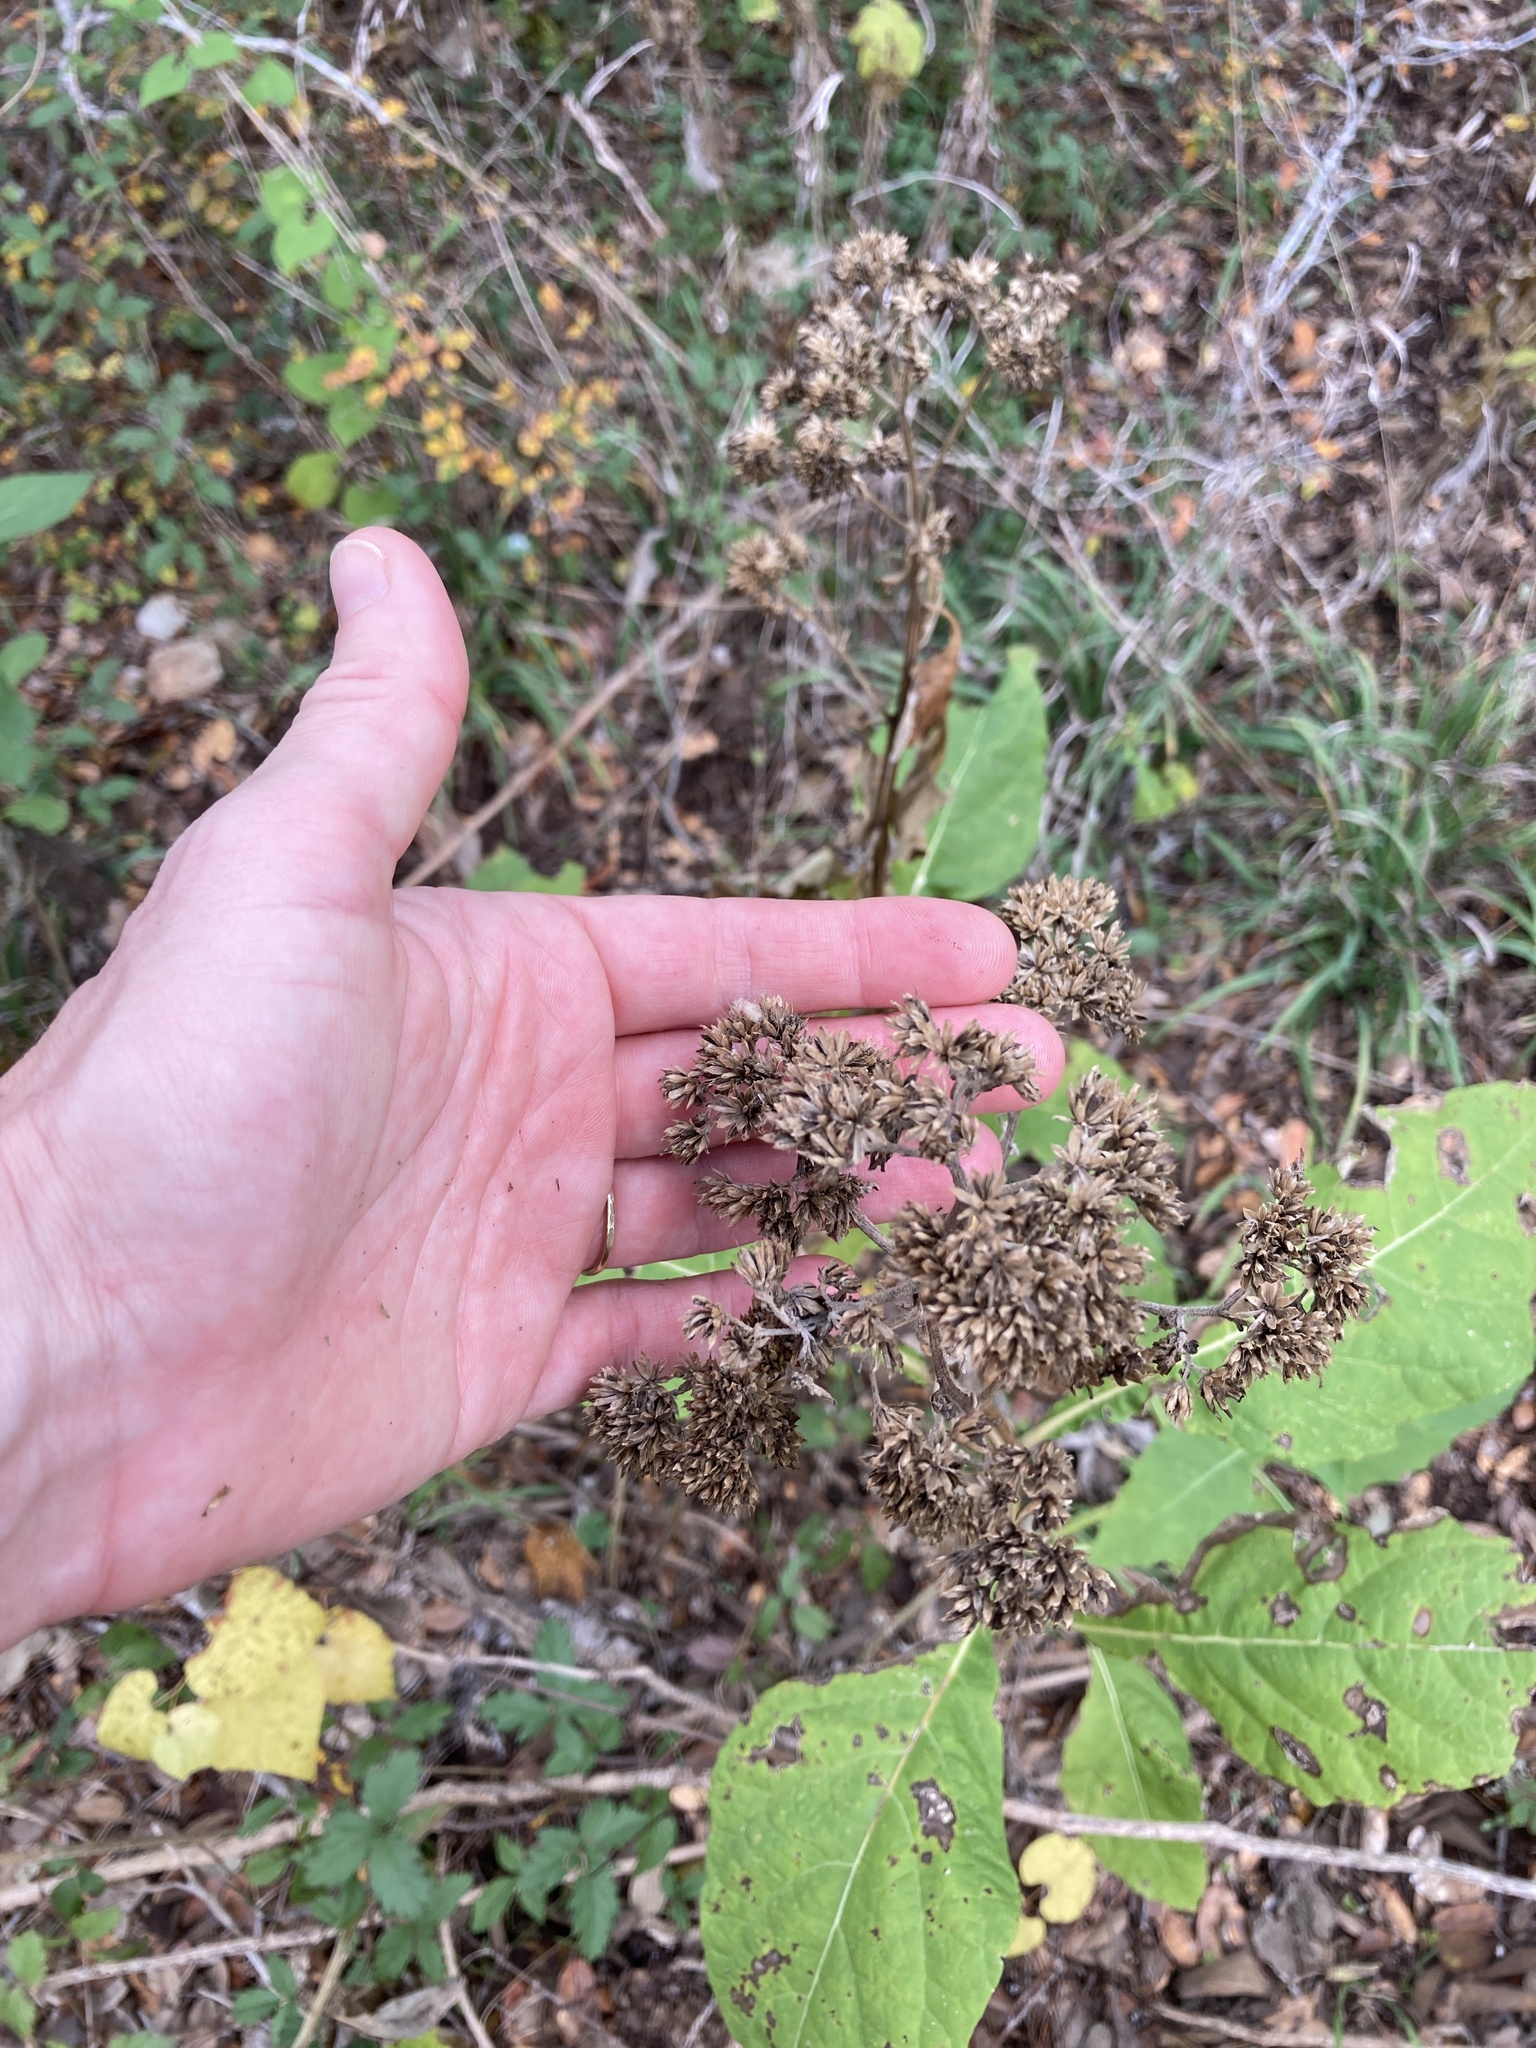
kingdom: Plantae
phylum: Tracheophyta
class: Magnoliopsida
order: Asterales
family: Asteraceae
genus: Verbesina
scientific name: Verbesina virginica
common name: Frostweed
